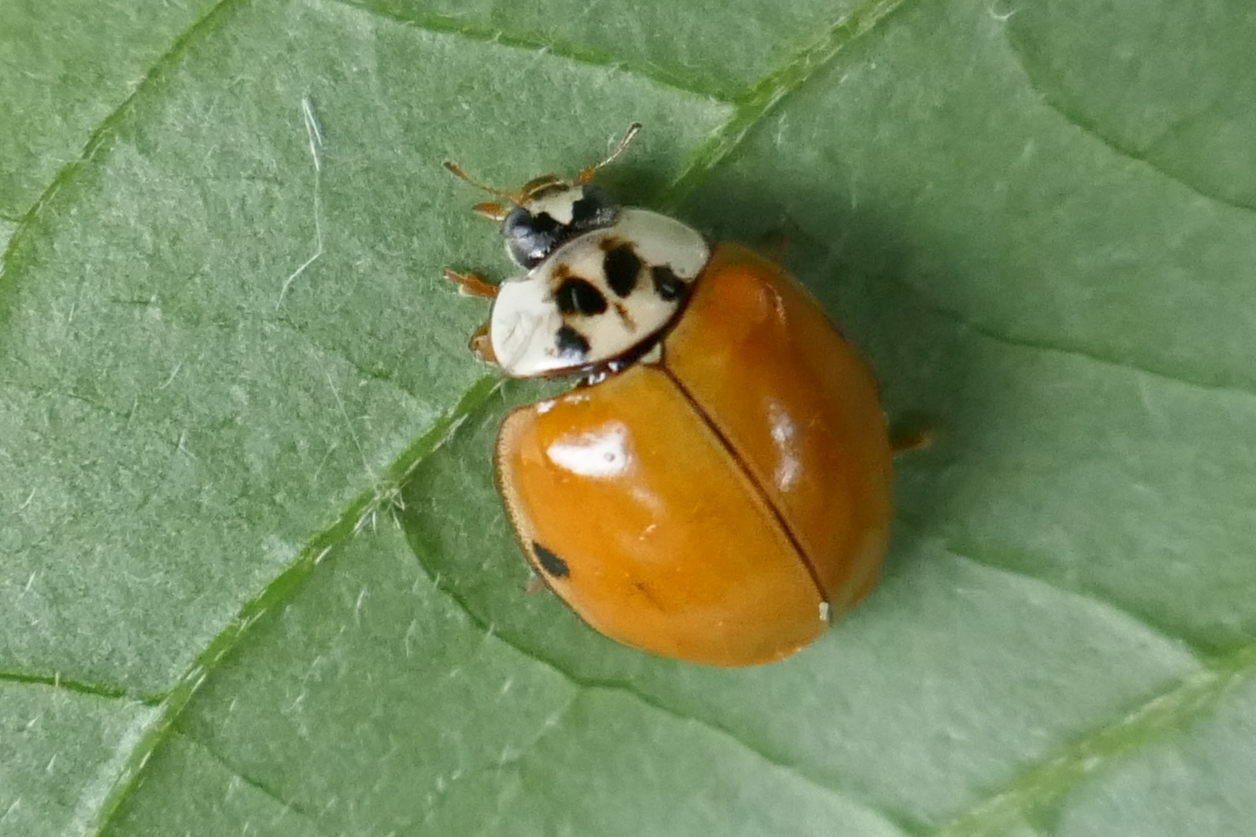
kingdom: Animalia
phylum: Arthropoda
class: Insecta
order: Coleoptera
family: Coccinellidae
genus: Harmonia
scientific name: Harmonia axyridis
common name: Harlequin ladybird
